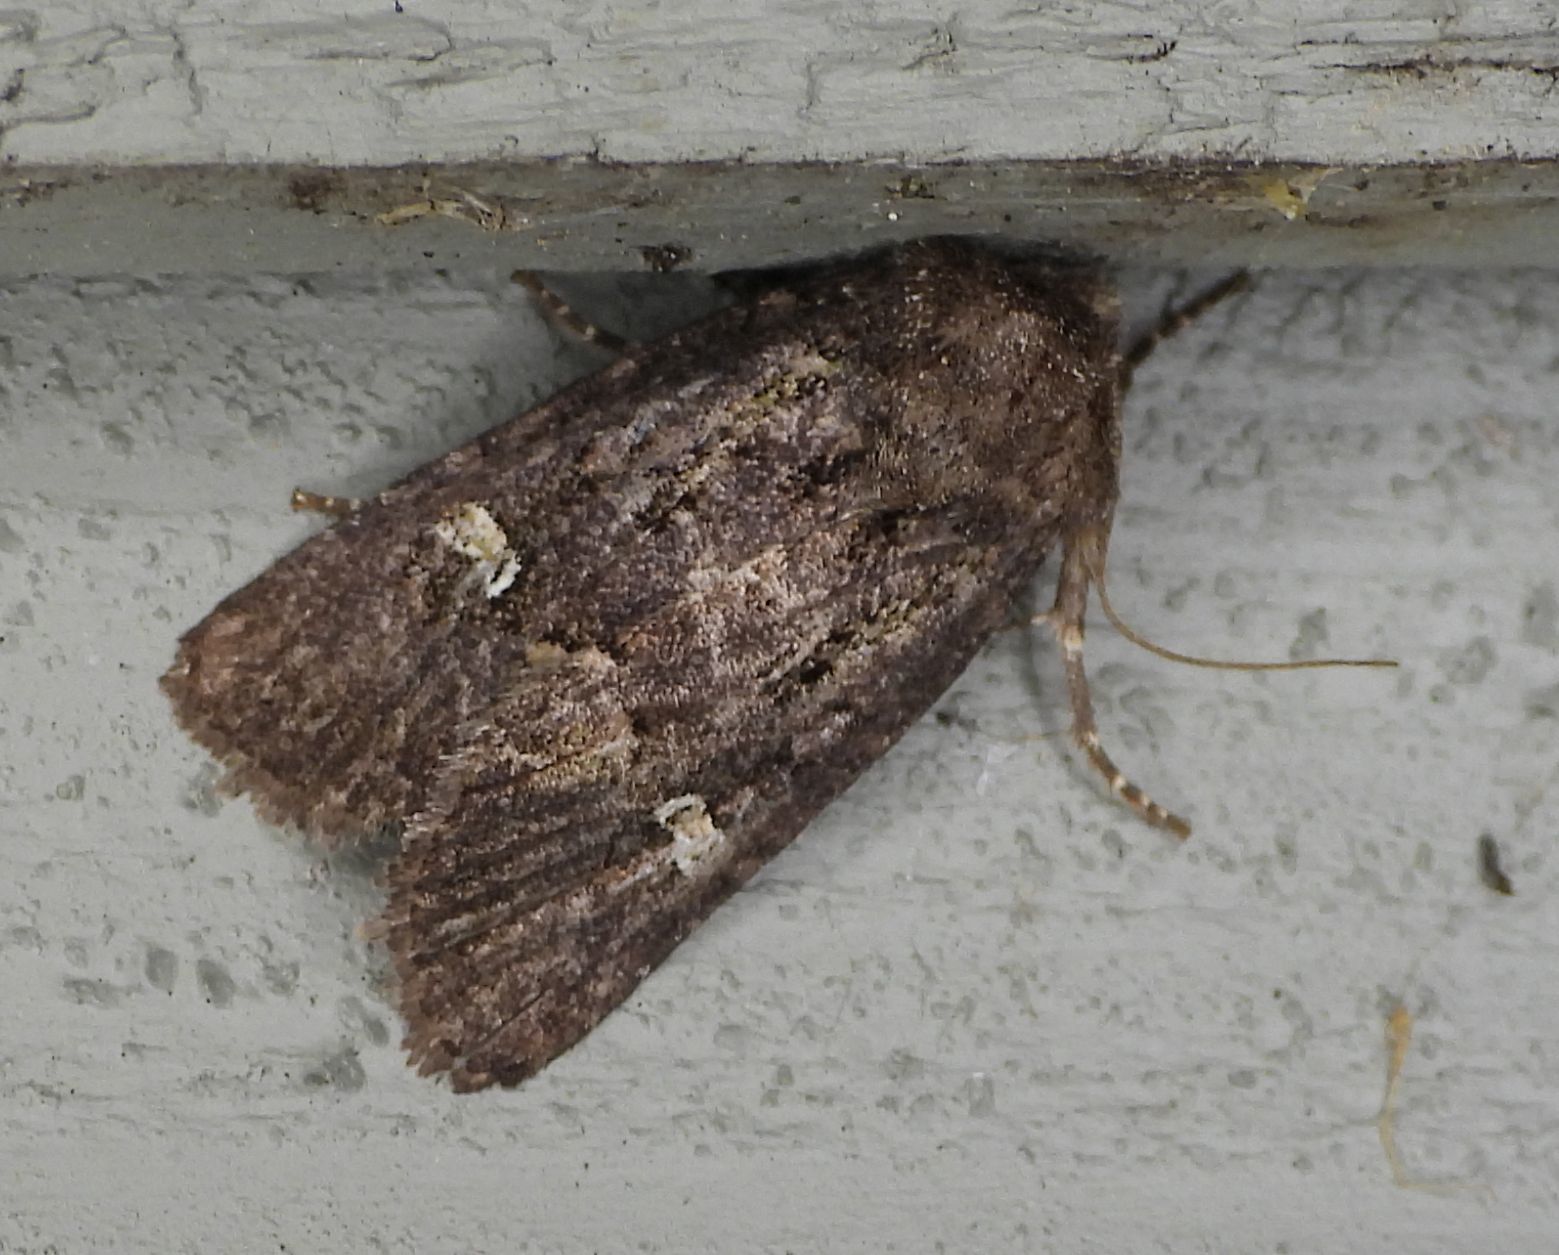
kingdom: Animalia
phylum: Arthropoda
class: Insecta
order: Lepidoptera
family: Noctuidae
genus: Lacinipolia
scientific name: Lacinipolia renigera
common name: Kidney-spotted minor
